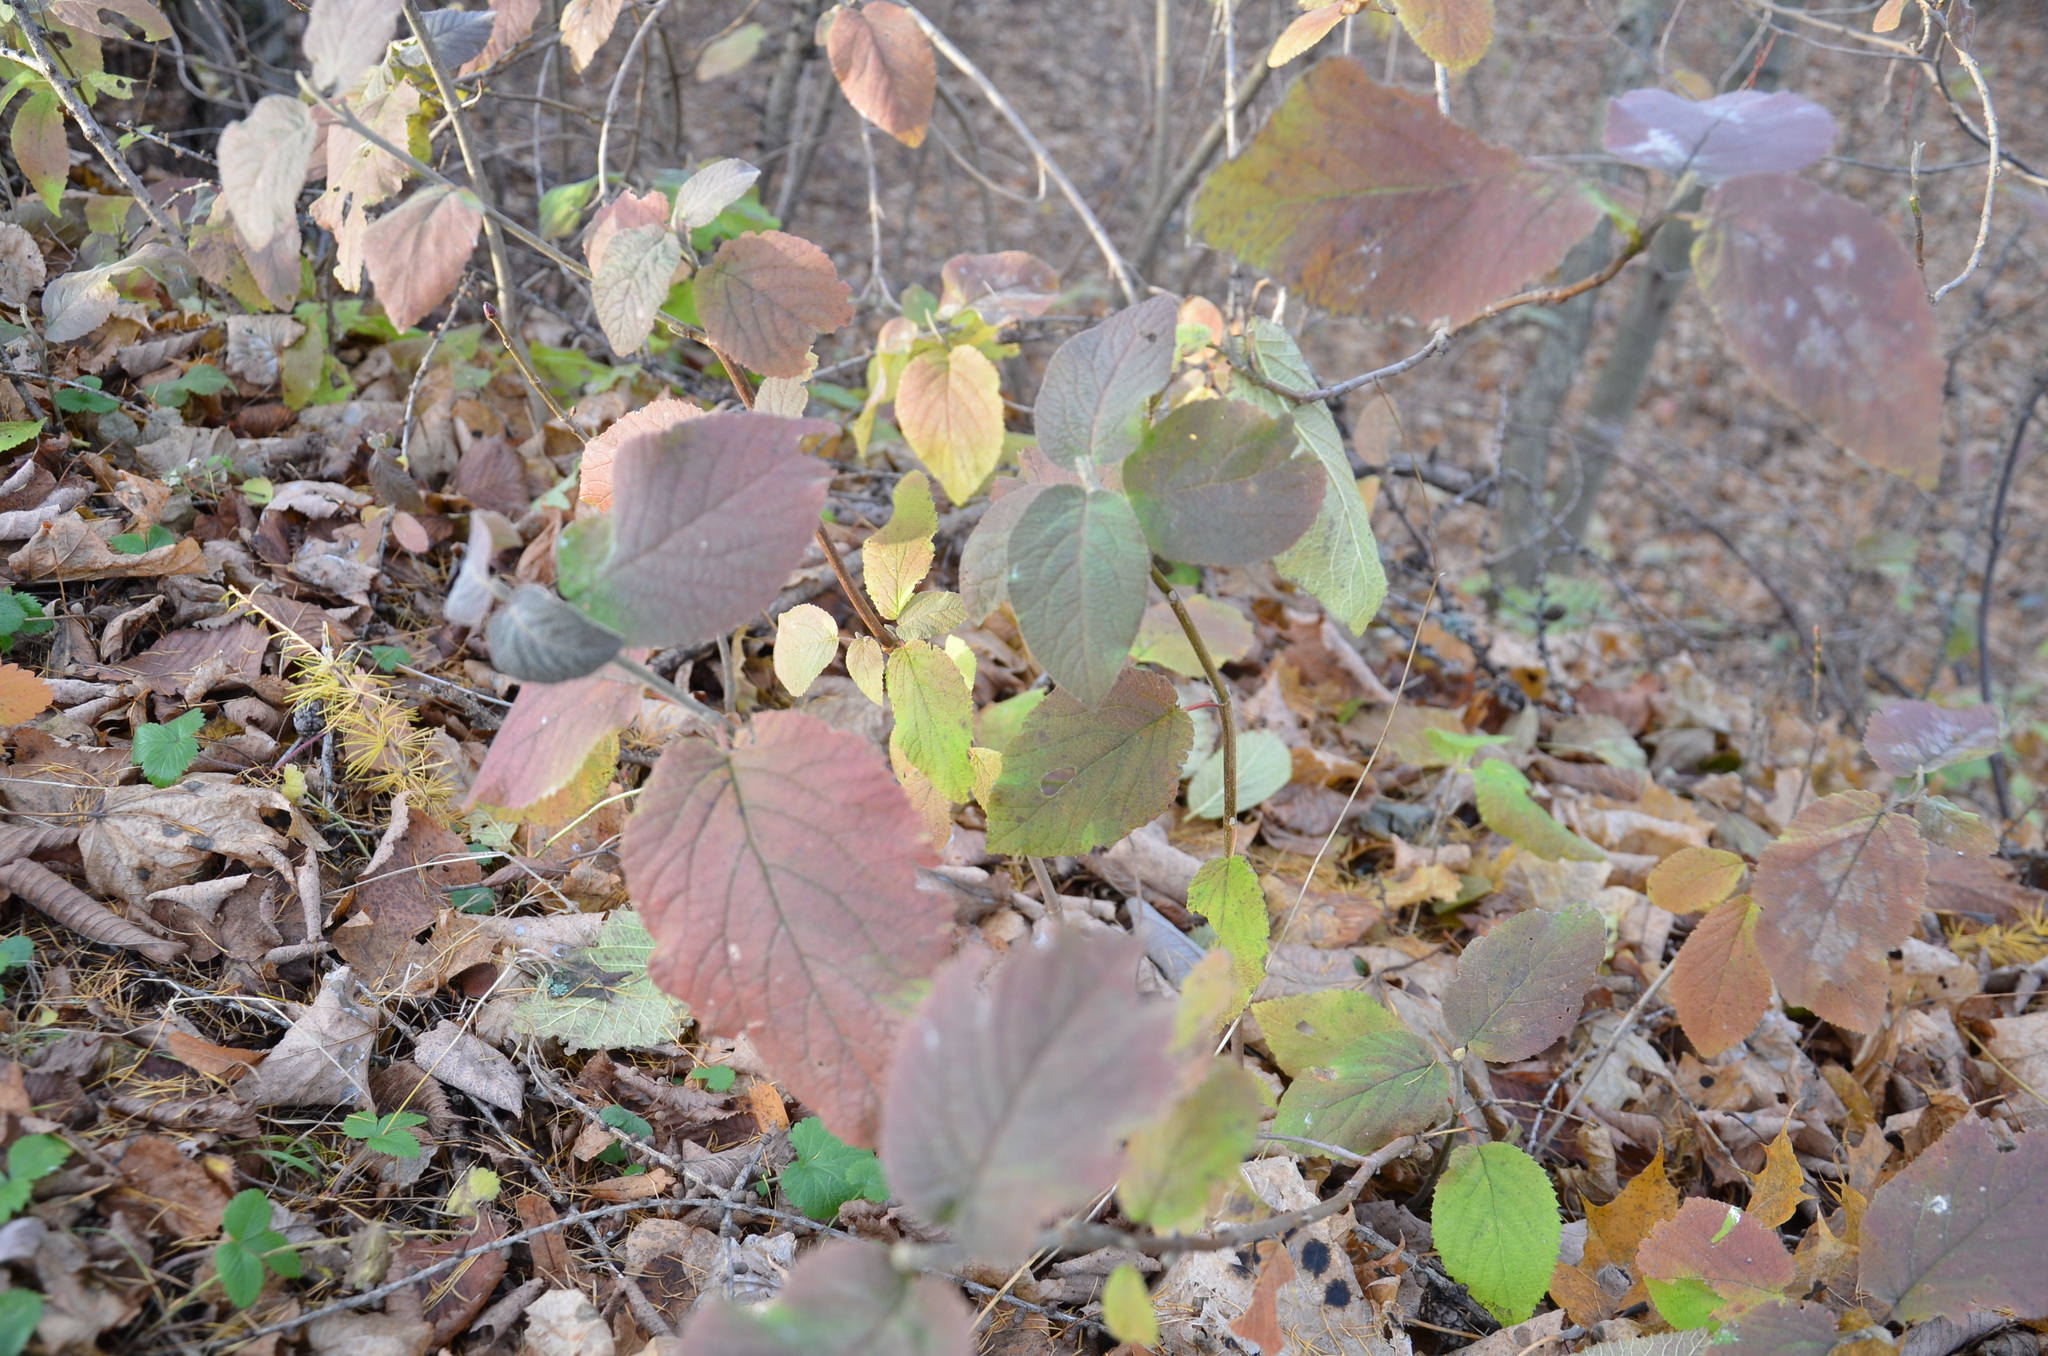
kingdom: Plantae
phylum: Tracheophyta
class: Magnoliopsida
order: Dipsacales
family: Viburnaceae
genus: Viburnum
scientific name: Viburnum lantana
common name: Wayfaring tree
